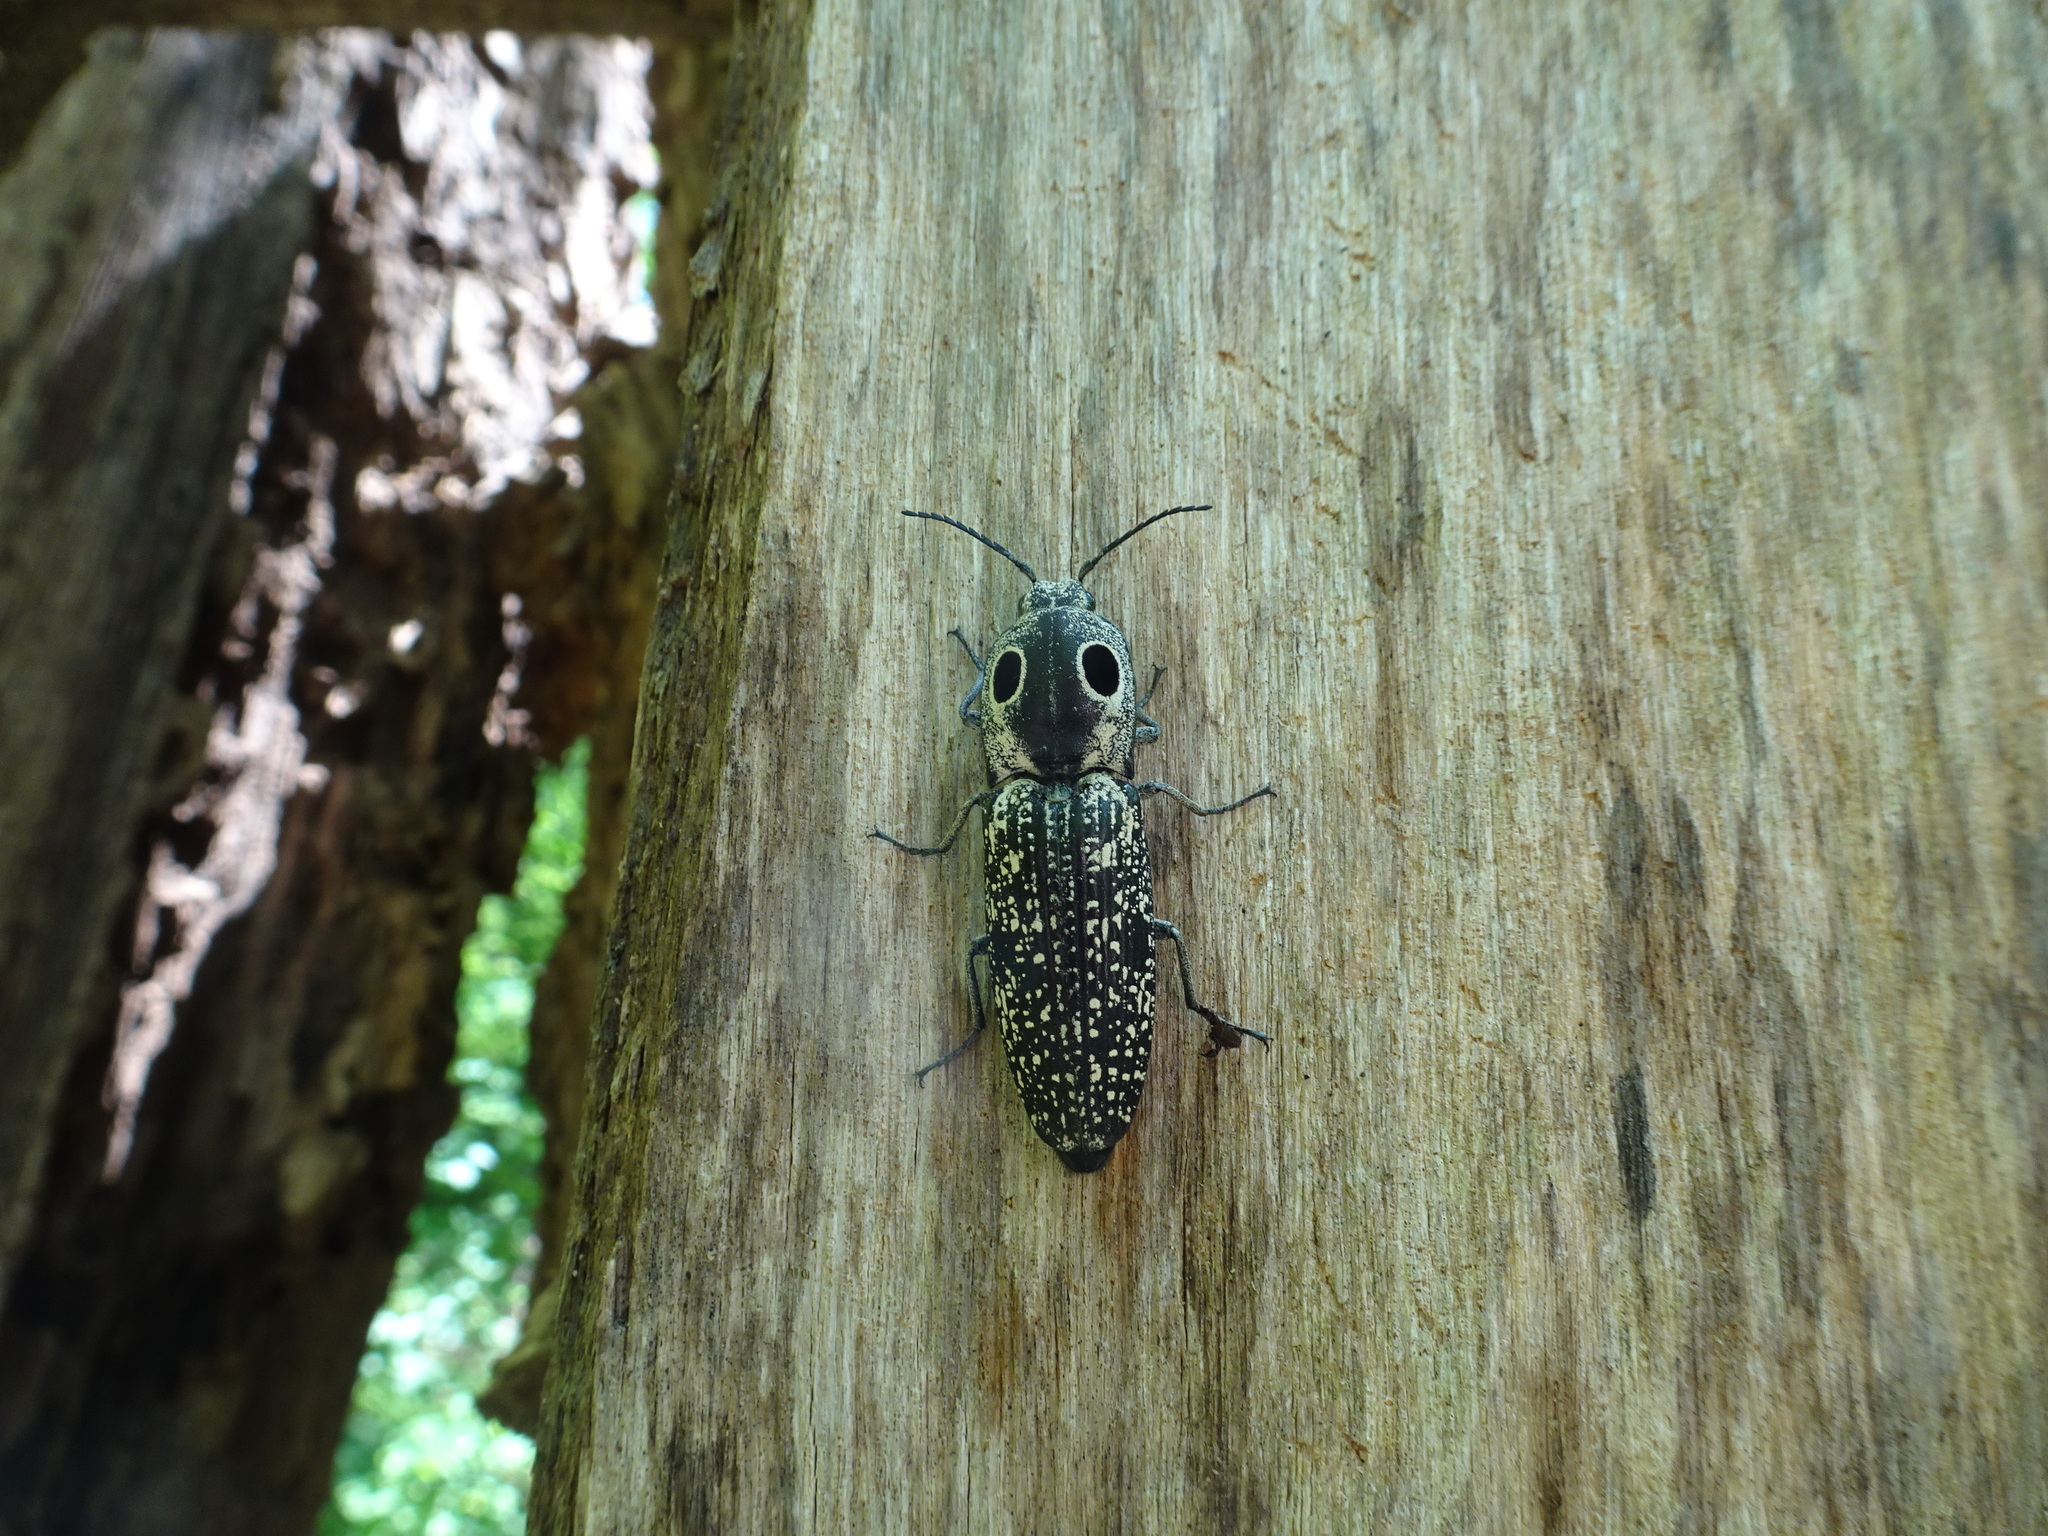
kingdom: Animalia
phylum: Arthropoda
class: Insecta
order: Coleoptera
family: Elateridae
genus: Alaus
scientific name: Alaus oculatus
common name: Eastern eyed click beetle
